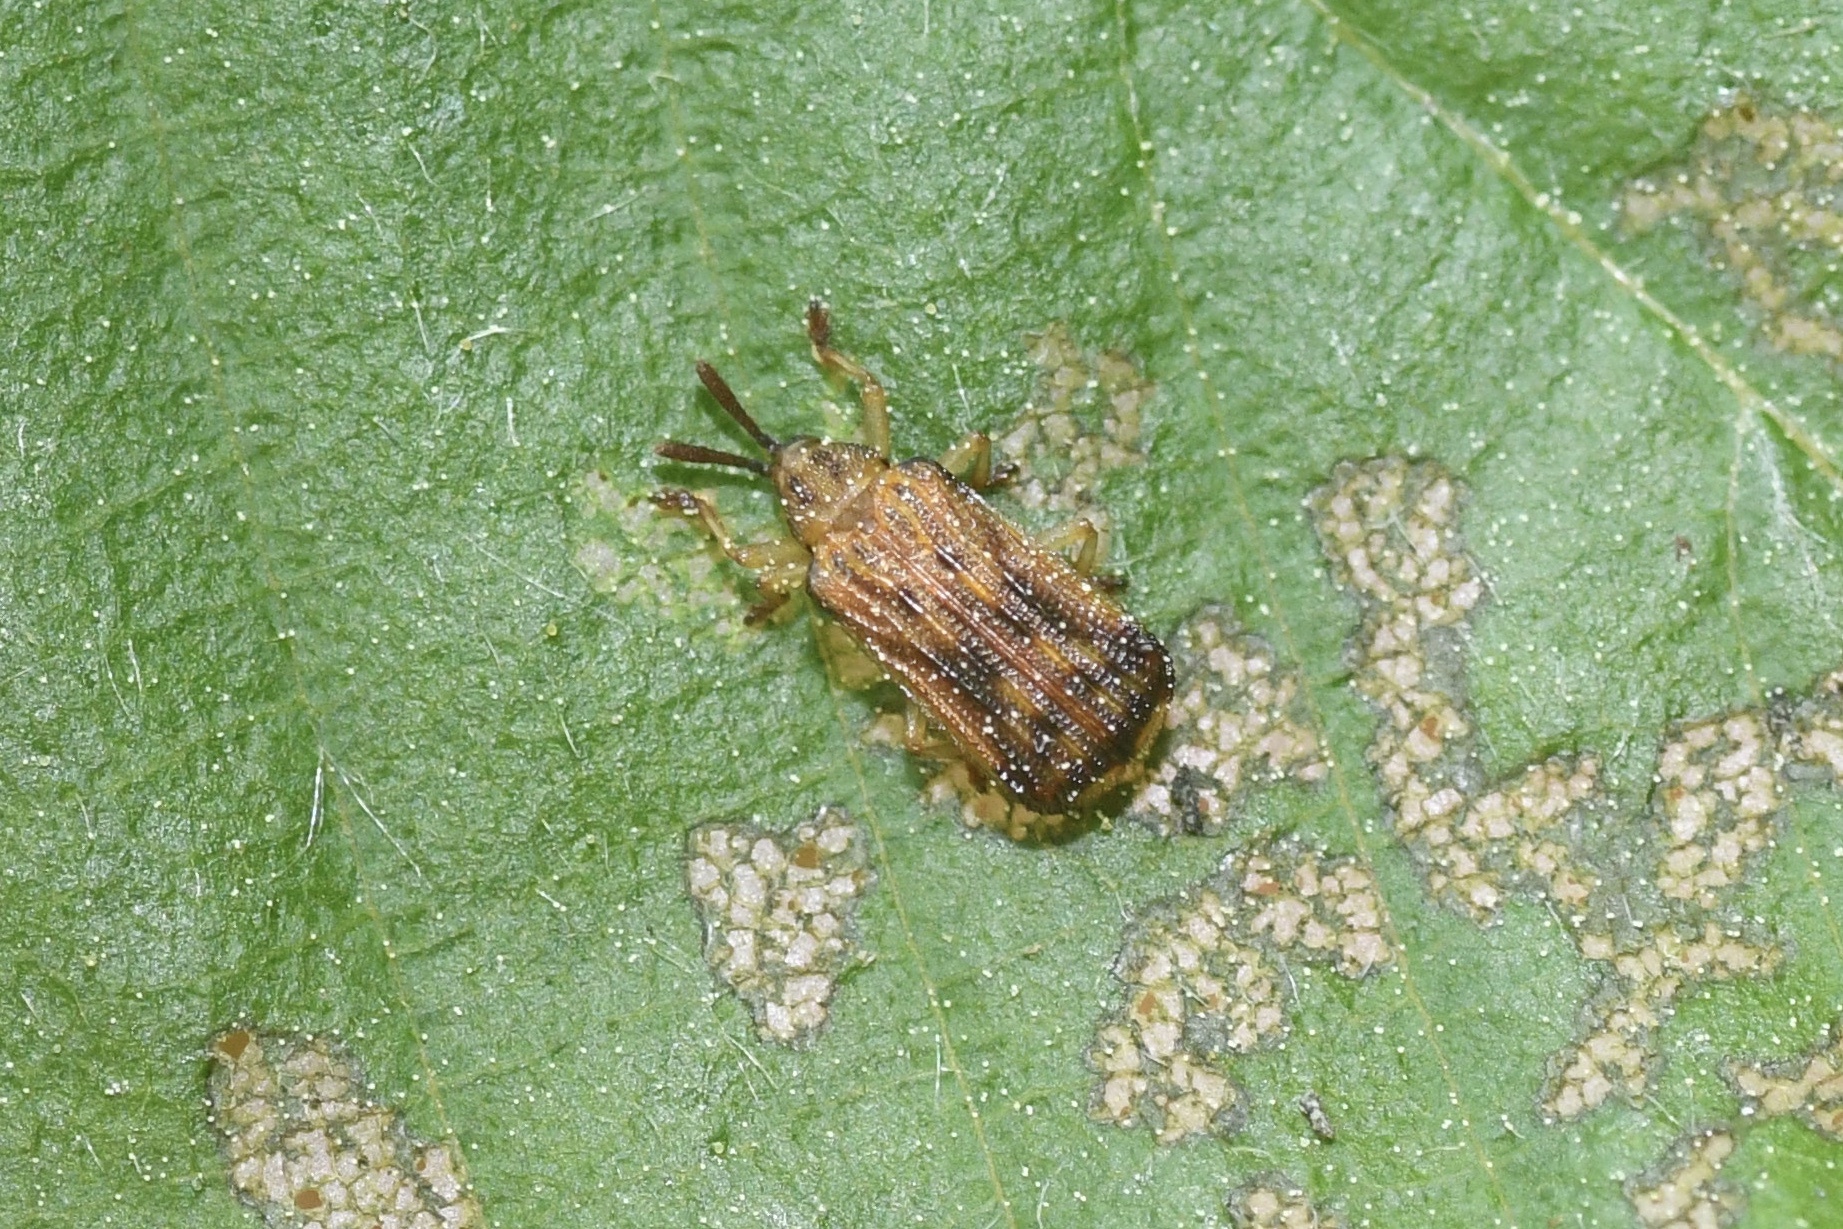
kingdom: Animalia
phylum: Arthropoda
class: Insecta
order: Coleoptera
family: Chrysomelidae
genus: Baliosus
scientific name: Baliosus nervosus
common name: Basswood leaf miner
